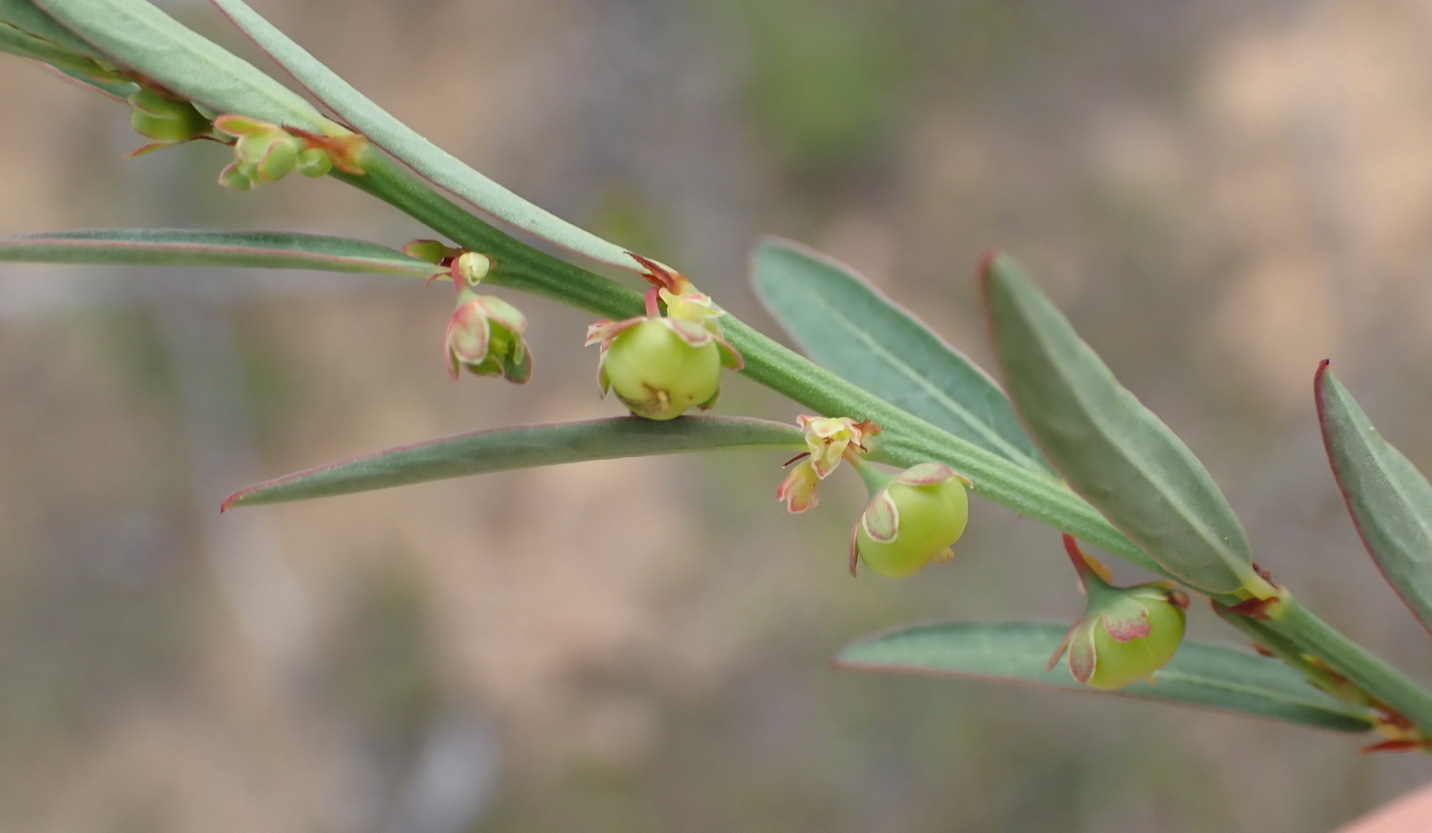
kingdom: Plantae
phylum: Tracheophyta
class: Magnoliopsida
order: Malpighiales
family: Phyllanthaceae
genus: Phyllanthus
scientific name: Phyllanthus
